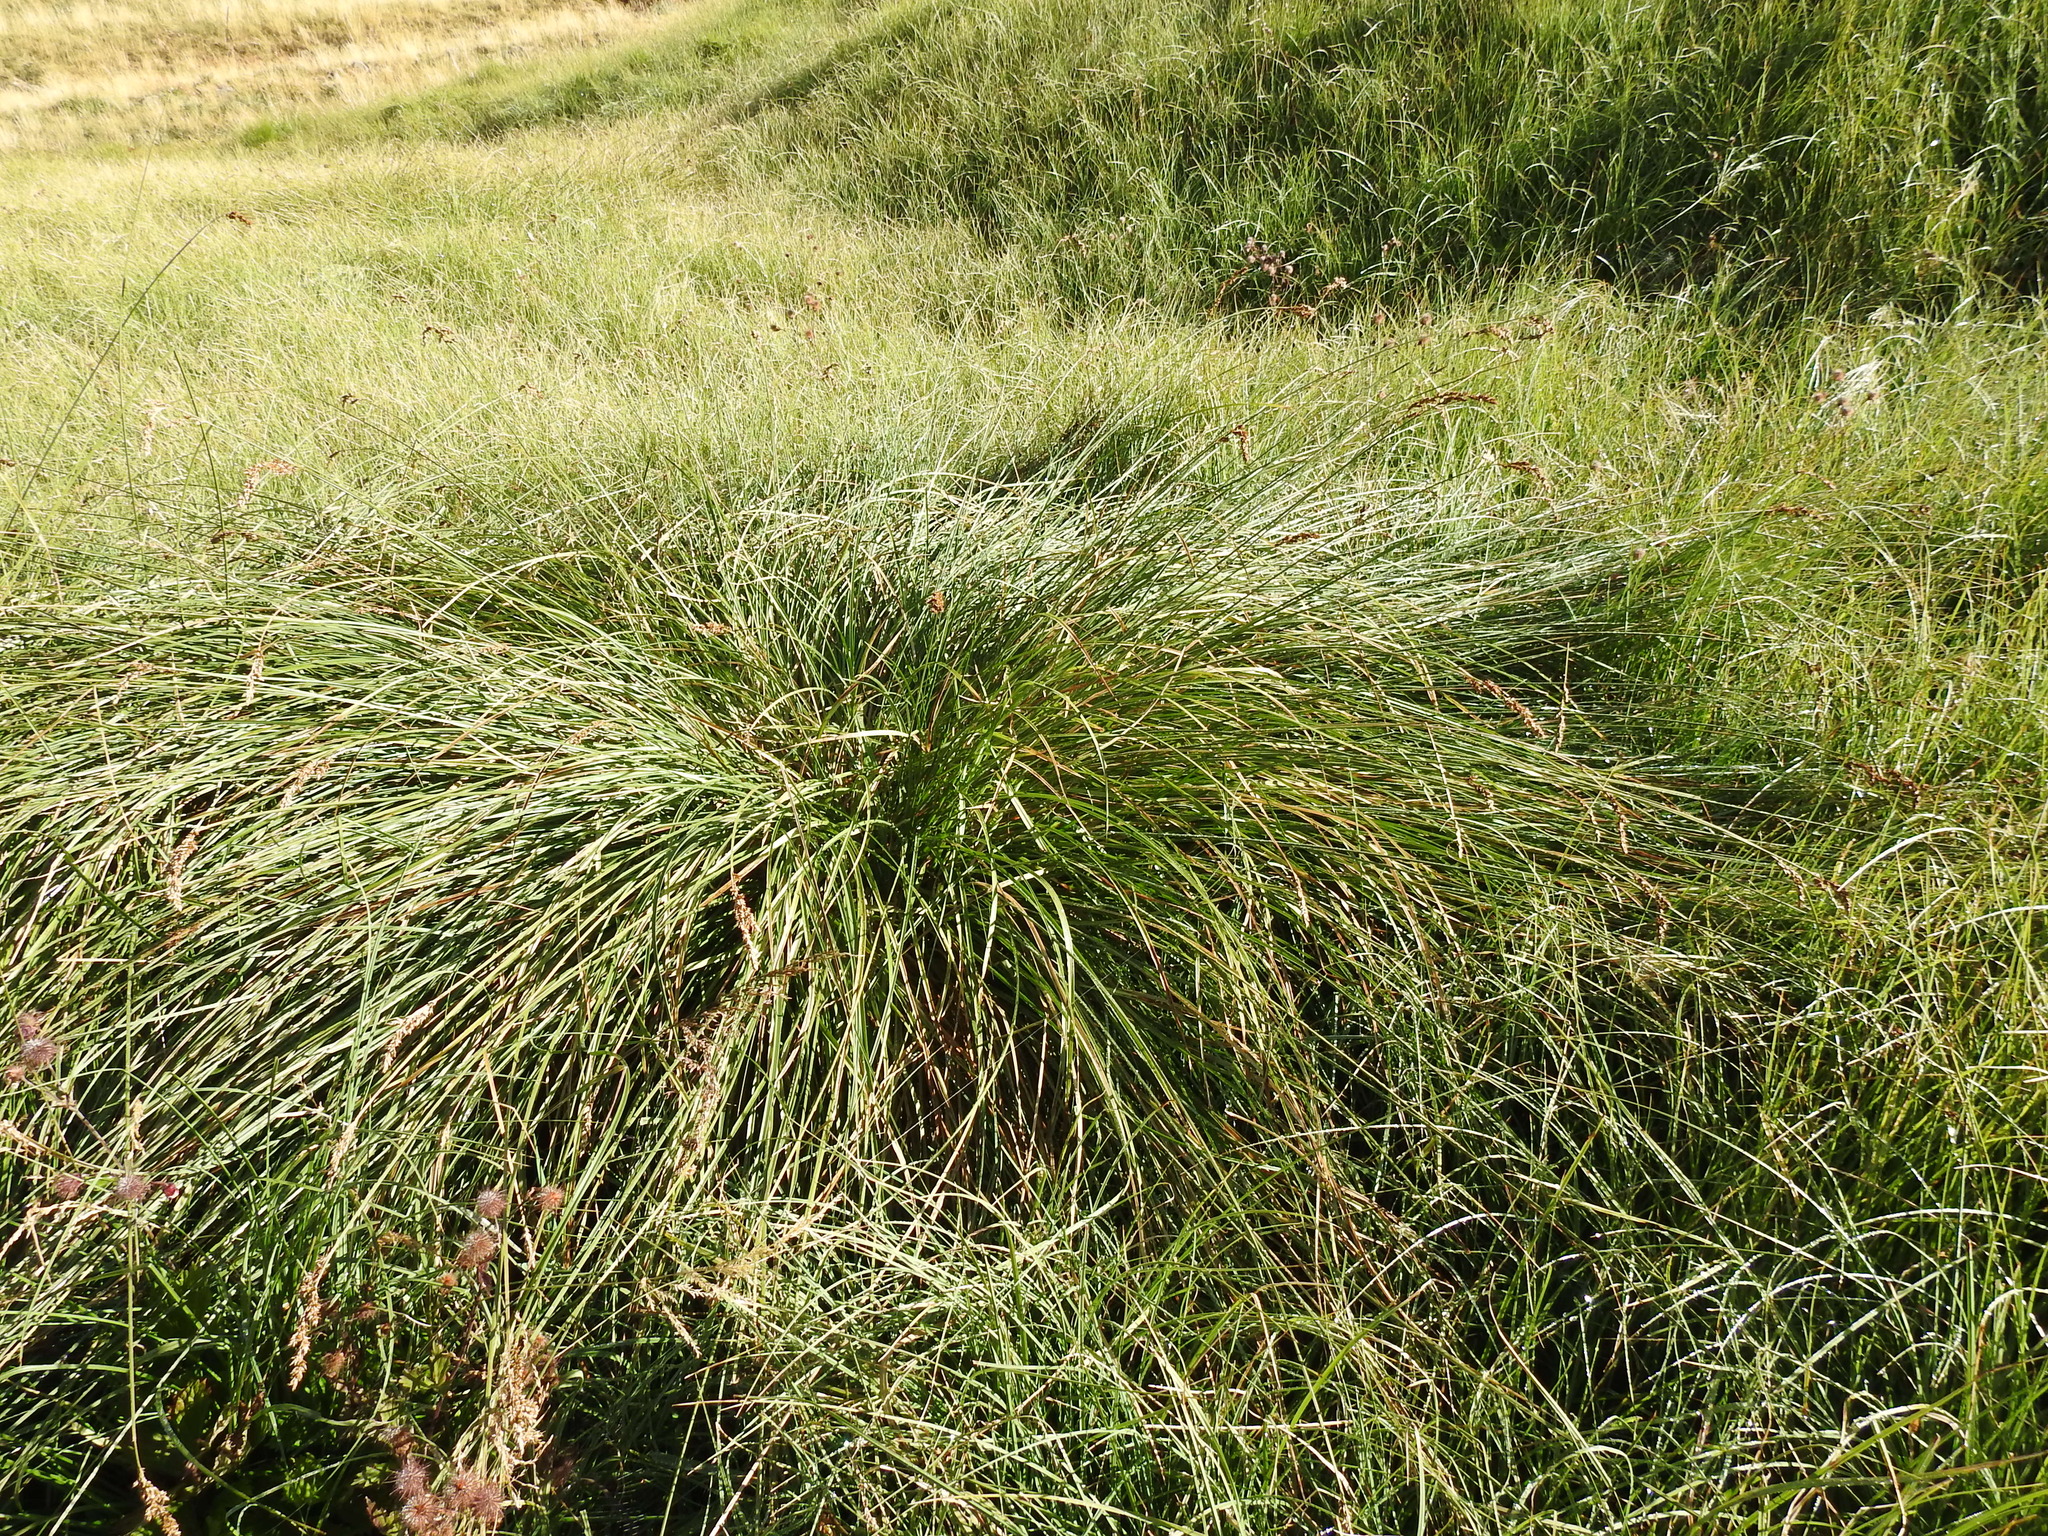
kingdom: Plantae
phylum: Tracheophyta
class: Liliopsida
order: Poales
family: Cyperaceae
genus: Carex
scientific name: Carex paniculata
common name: Greater tussock-sedge
